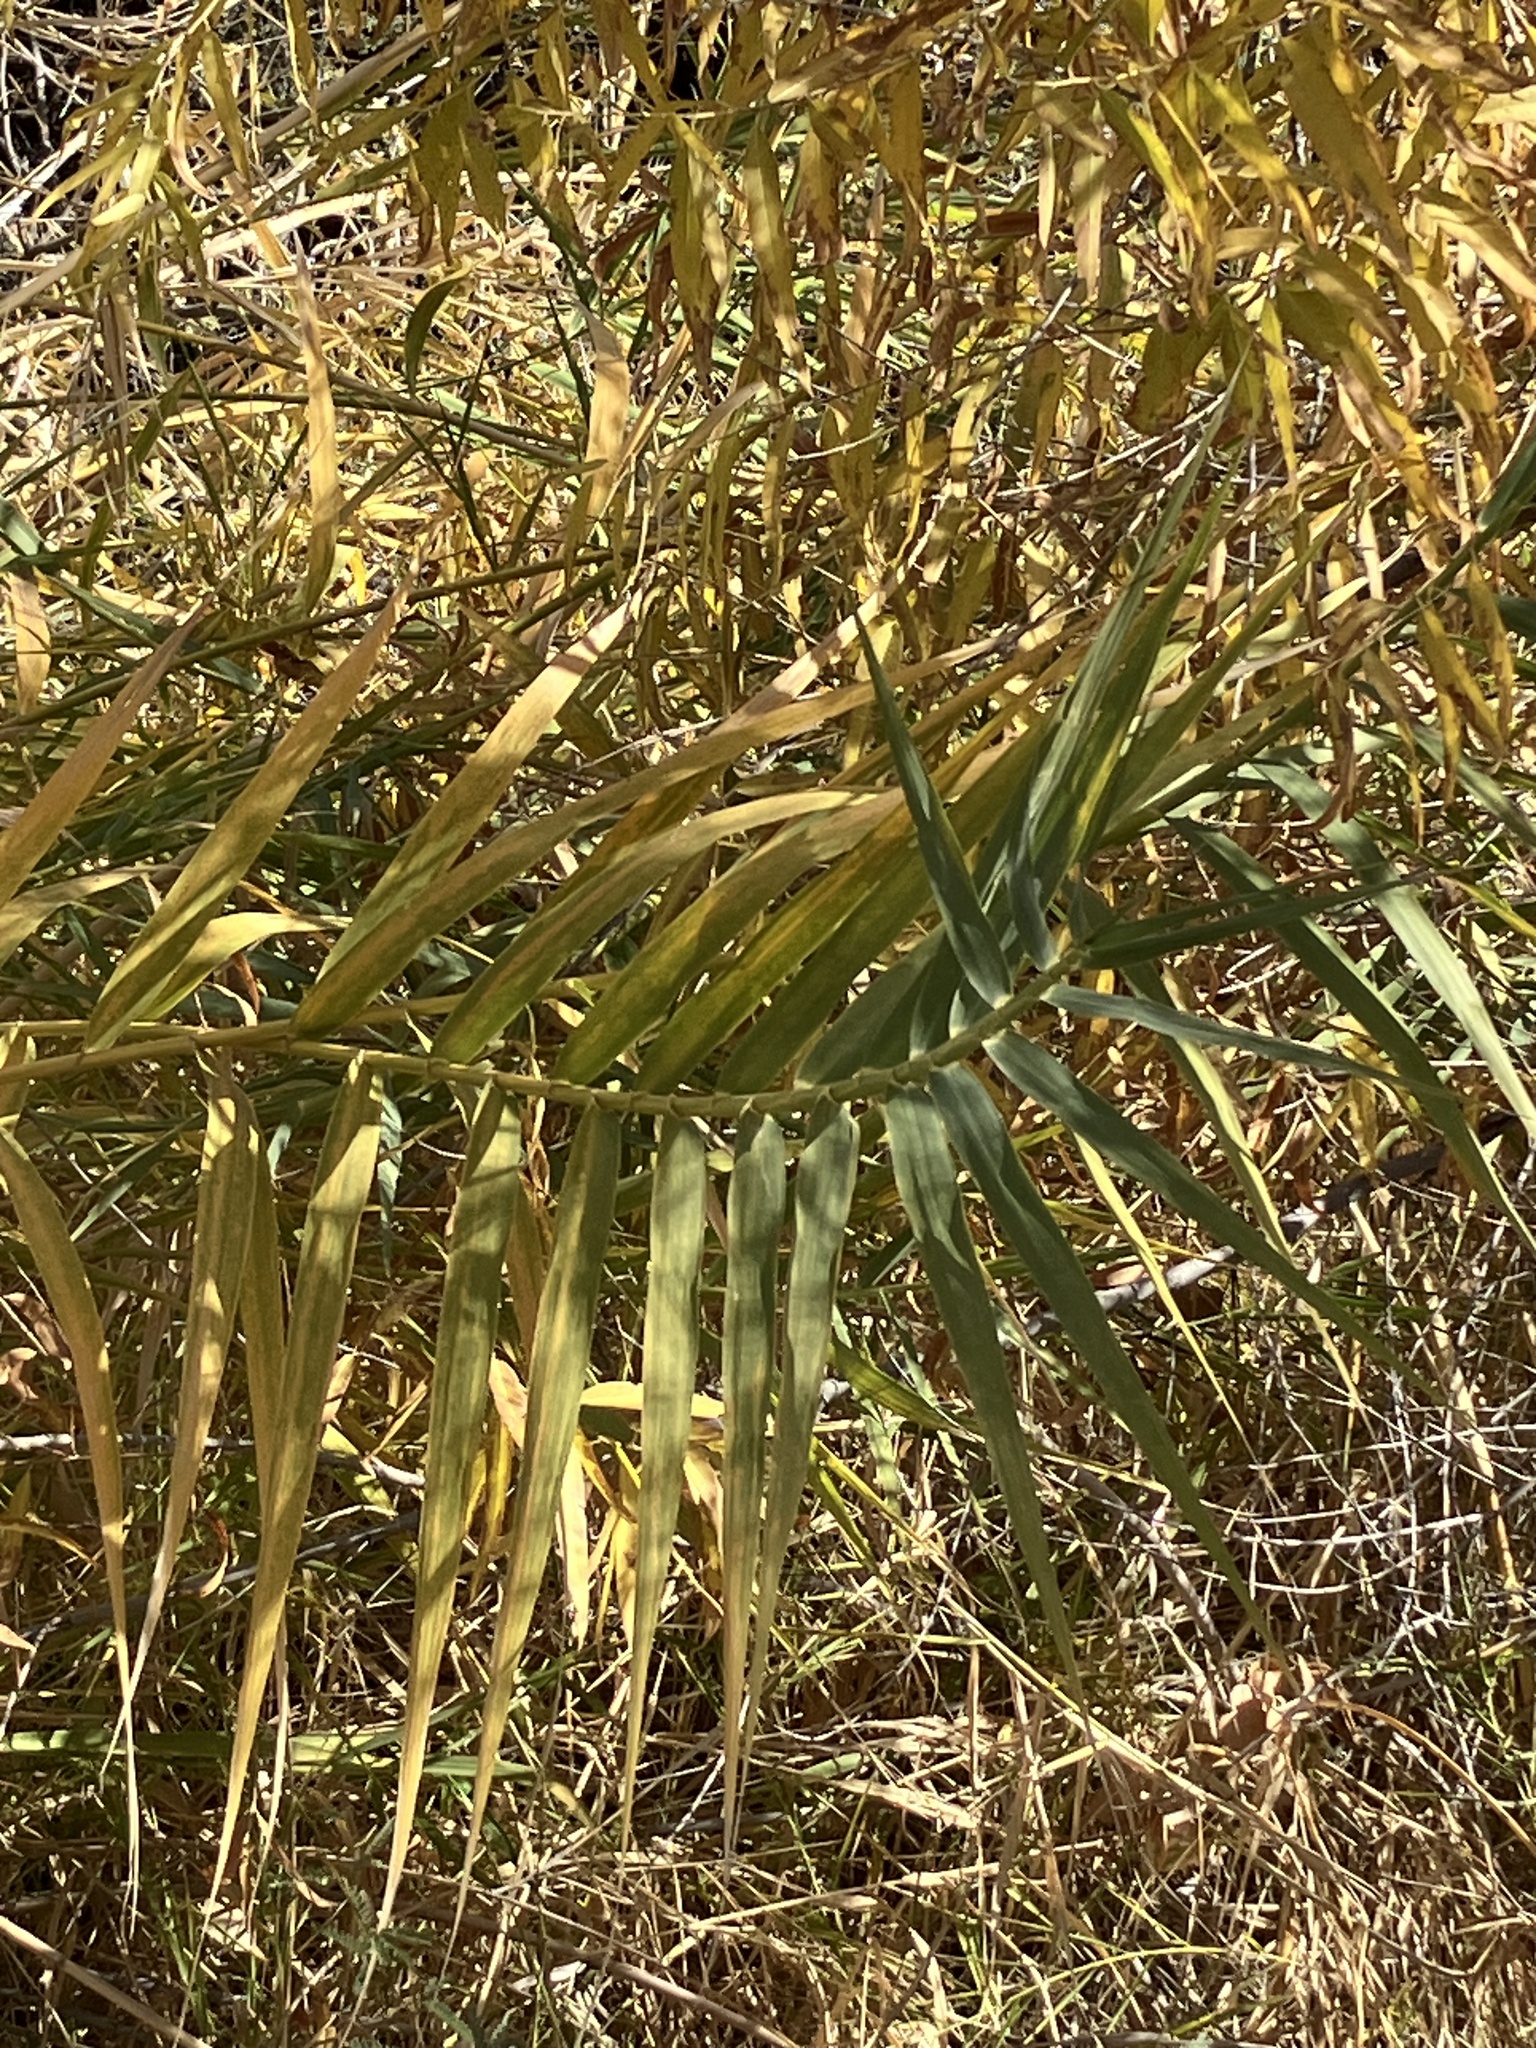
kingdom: Plantae
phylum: Tracheophyta
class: Liliopsida
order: Poales
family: Poaceae
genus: Arundo
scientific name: Arundo donax
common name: Giant reed
